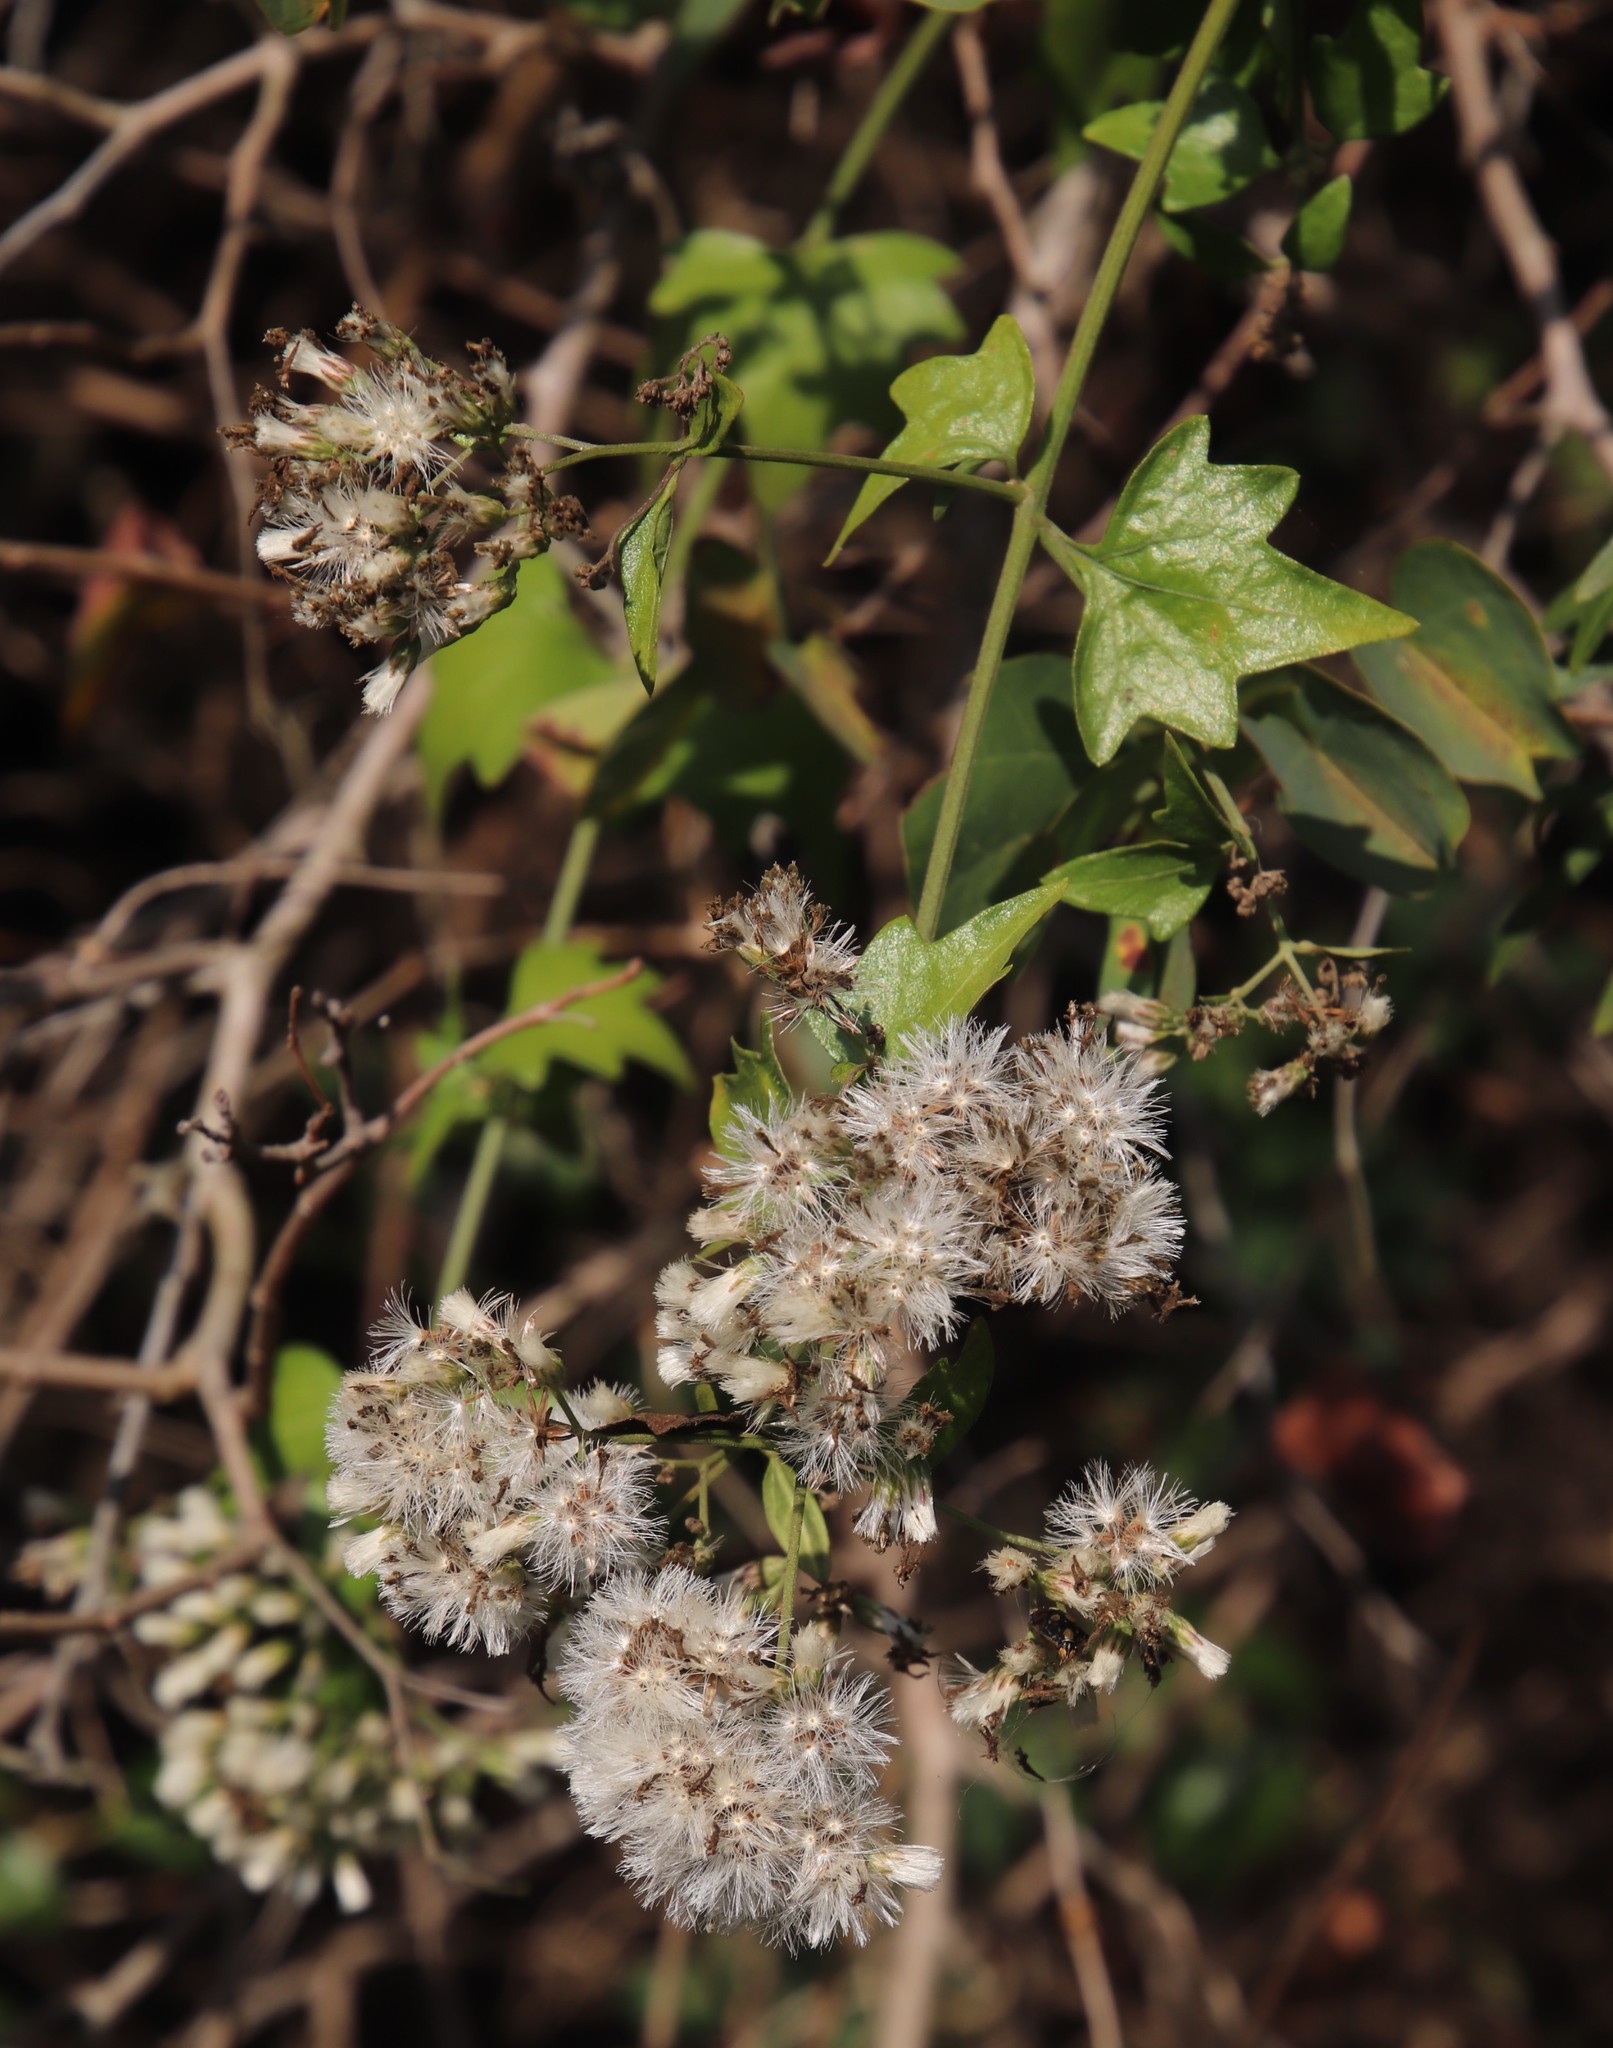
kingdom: Plantae
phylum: Tracheophyta
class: Magnoliopsida
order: Asterales
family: Asteraceae
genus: Distephanus
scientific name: Distephanus angulifolius
